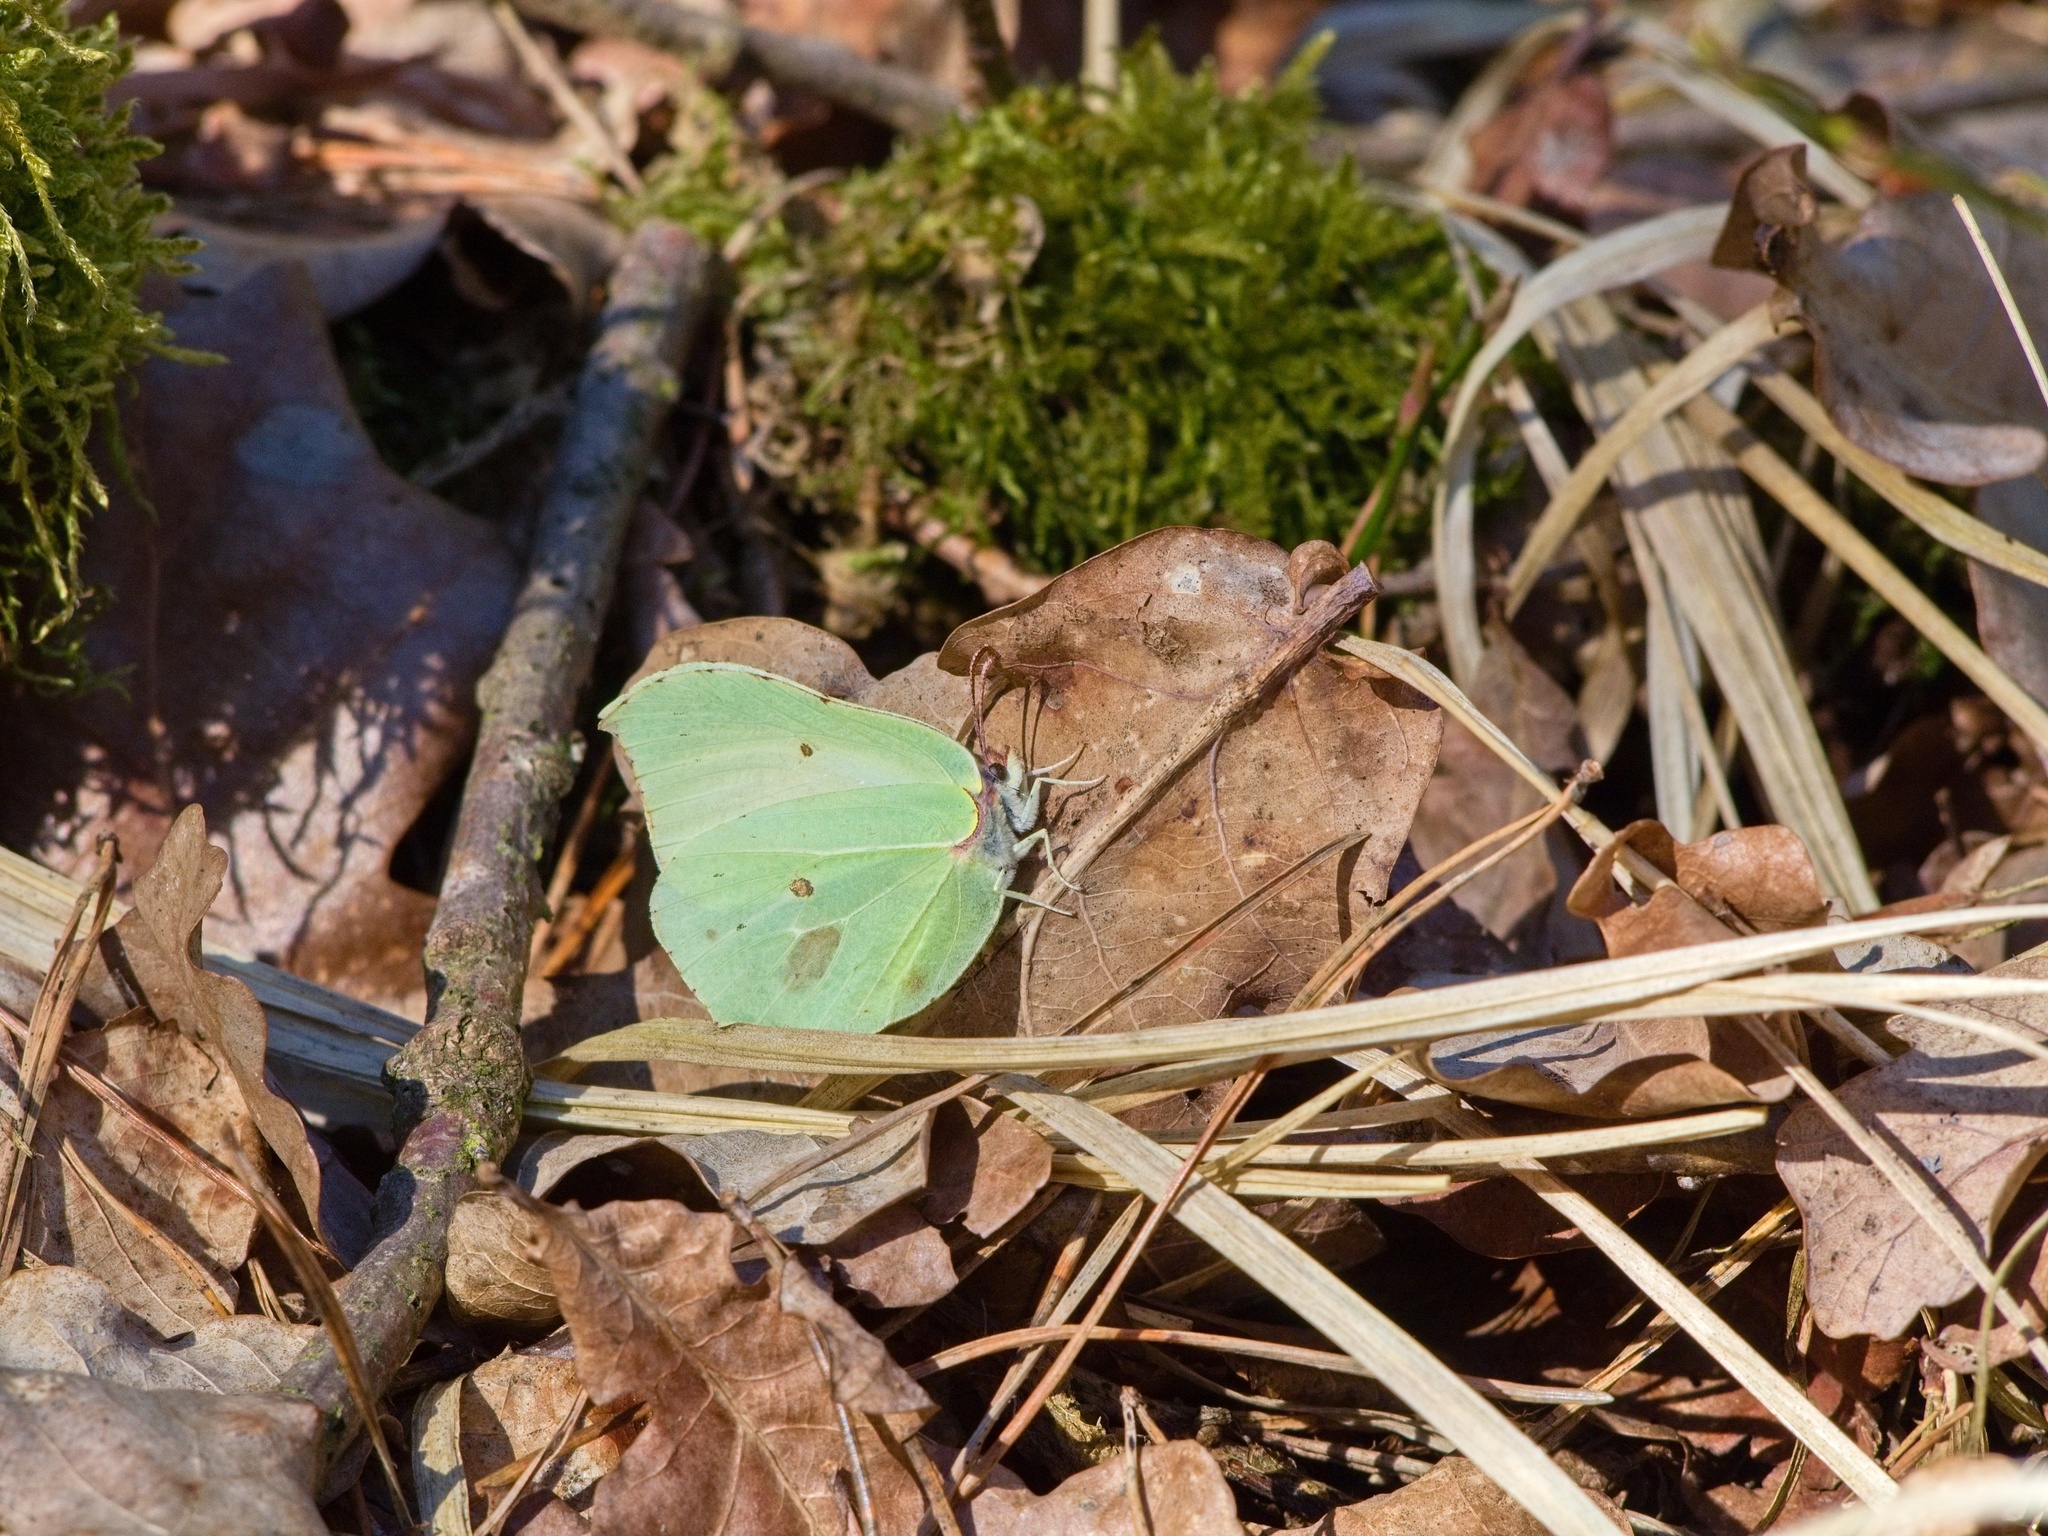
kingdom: Animalia
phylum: Arthropoda
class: Insecta
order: Lepidoptera
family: Pieridae
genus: Gonepteryx
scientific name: Gonepteryx rhamni
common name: Brimstone
